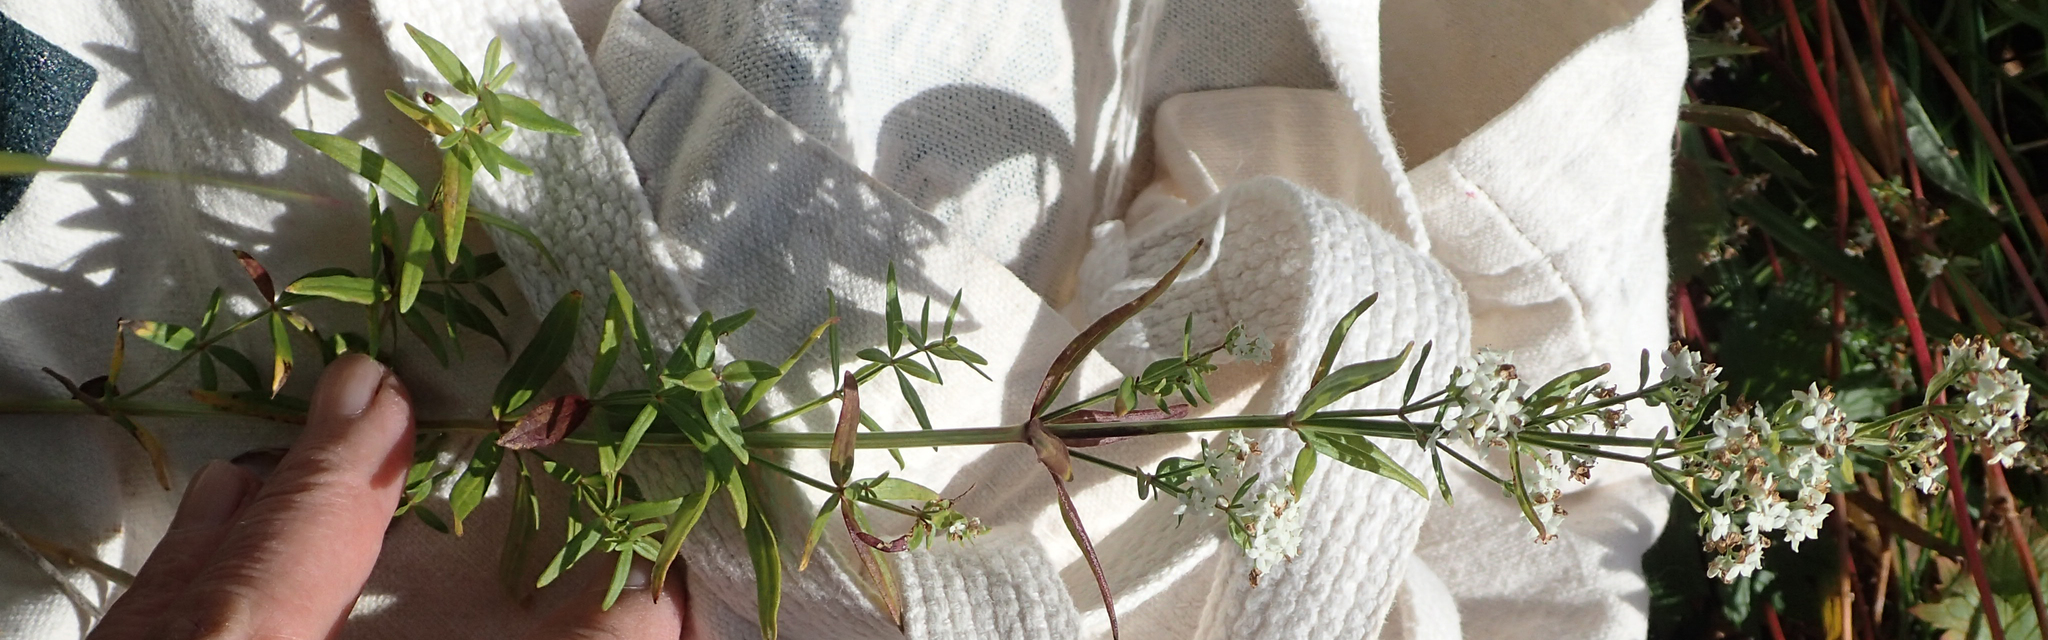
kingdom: Plantae
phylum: Tracheophyta
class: Magnoliopsida
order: Gentianales
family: Rubiaceae
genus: Galium
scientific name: Galium boreale
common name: Northern bedstraw
